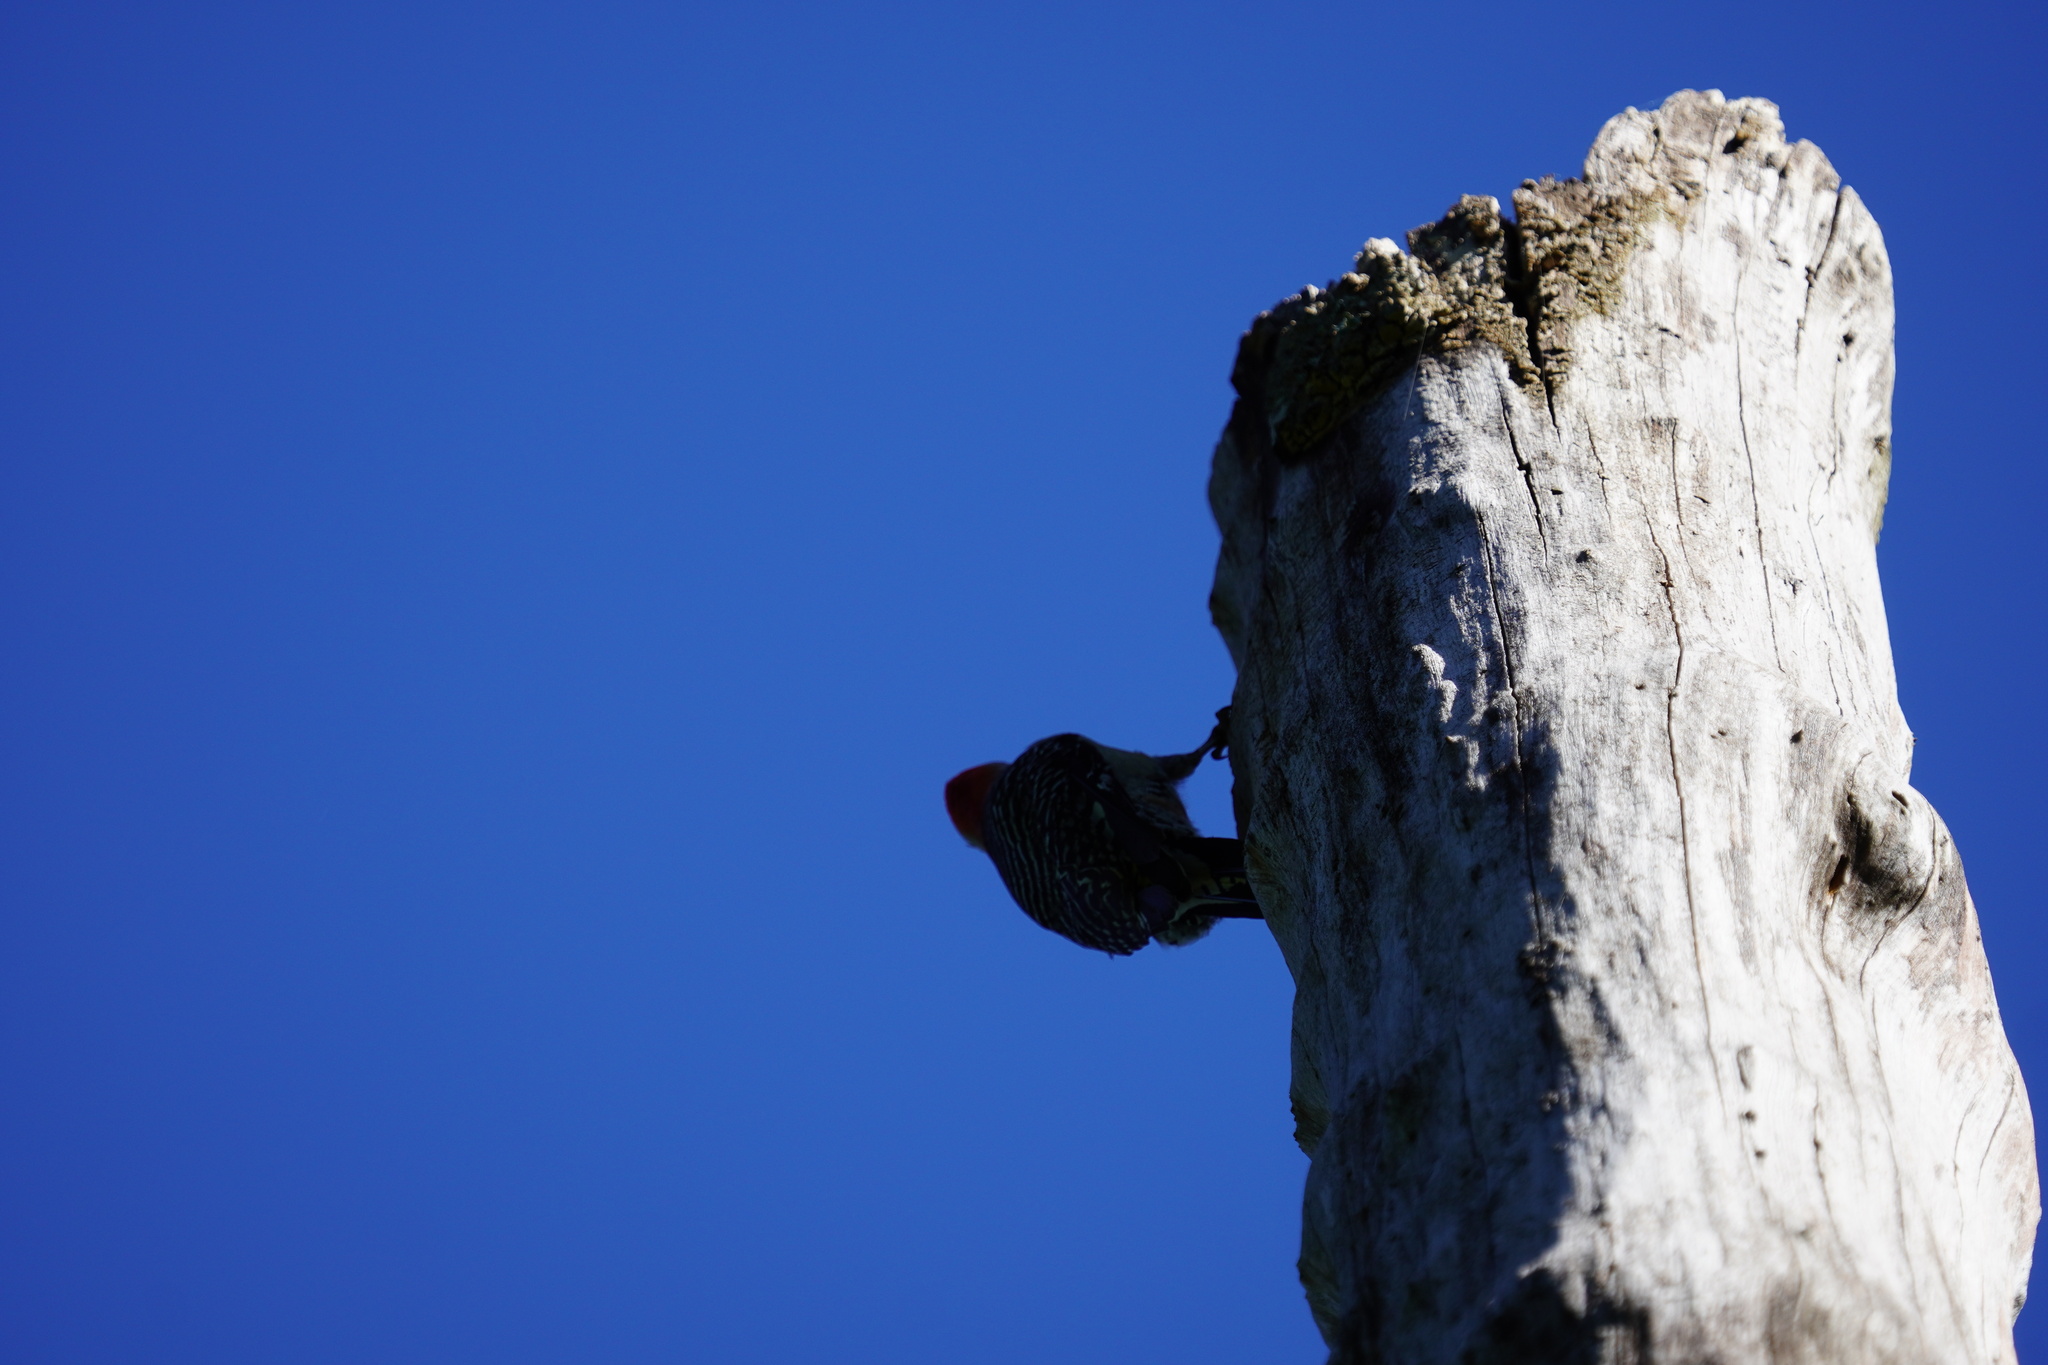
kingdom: Animalia
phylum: Chordata
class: Aves
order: Piciformes
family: Picidae
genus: Melanerpes
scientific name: Melanerpes carolinus
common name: Red-bellied woodpecker
